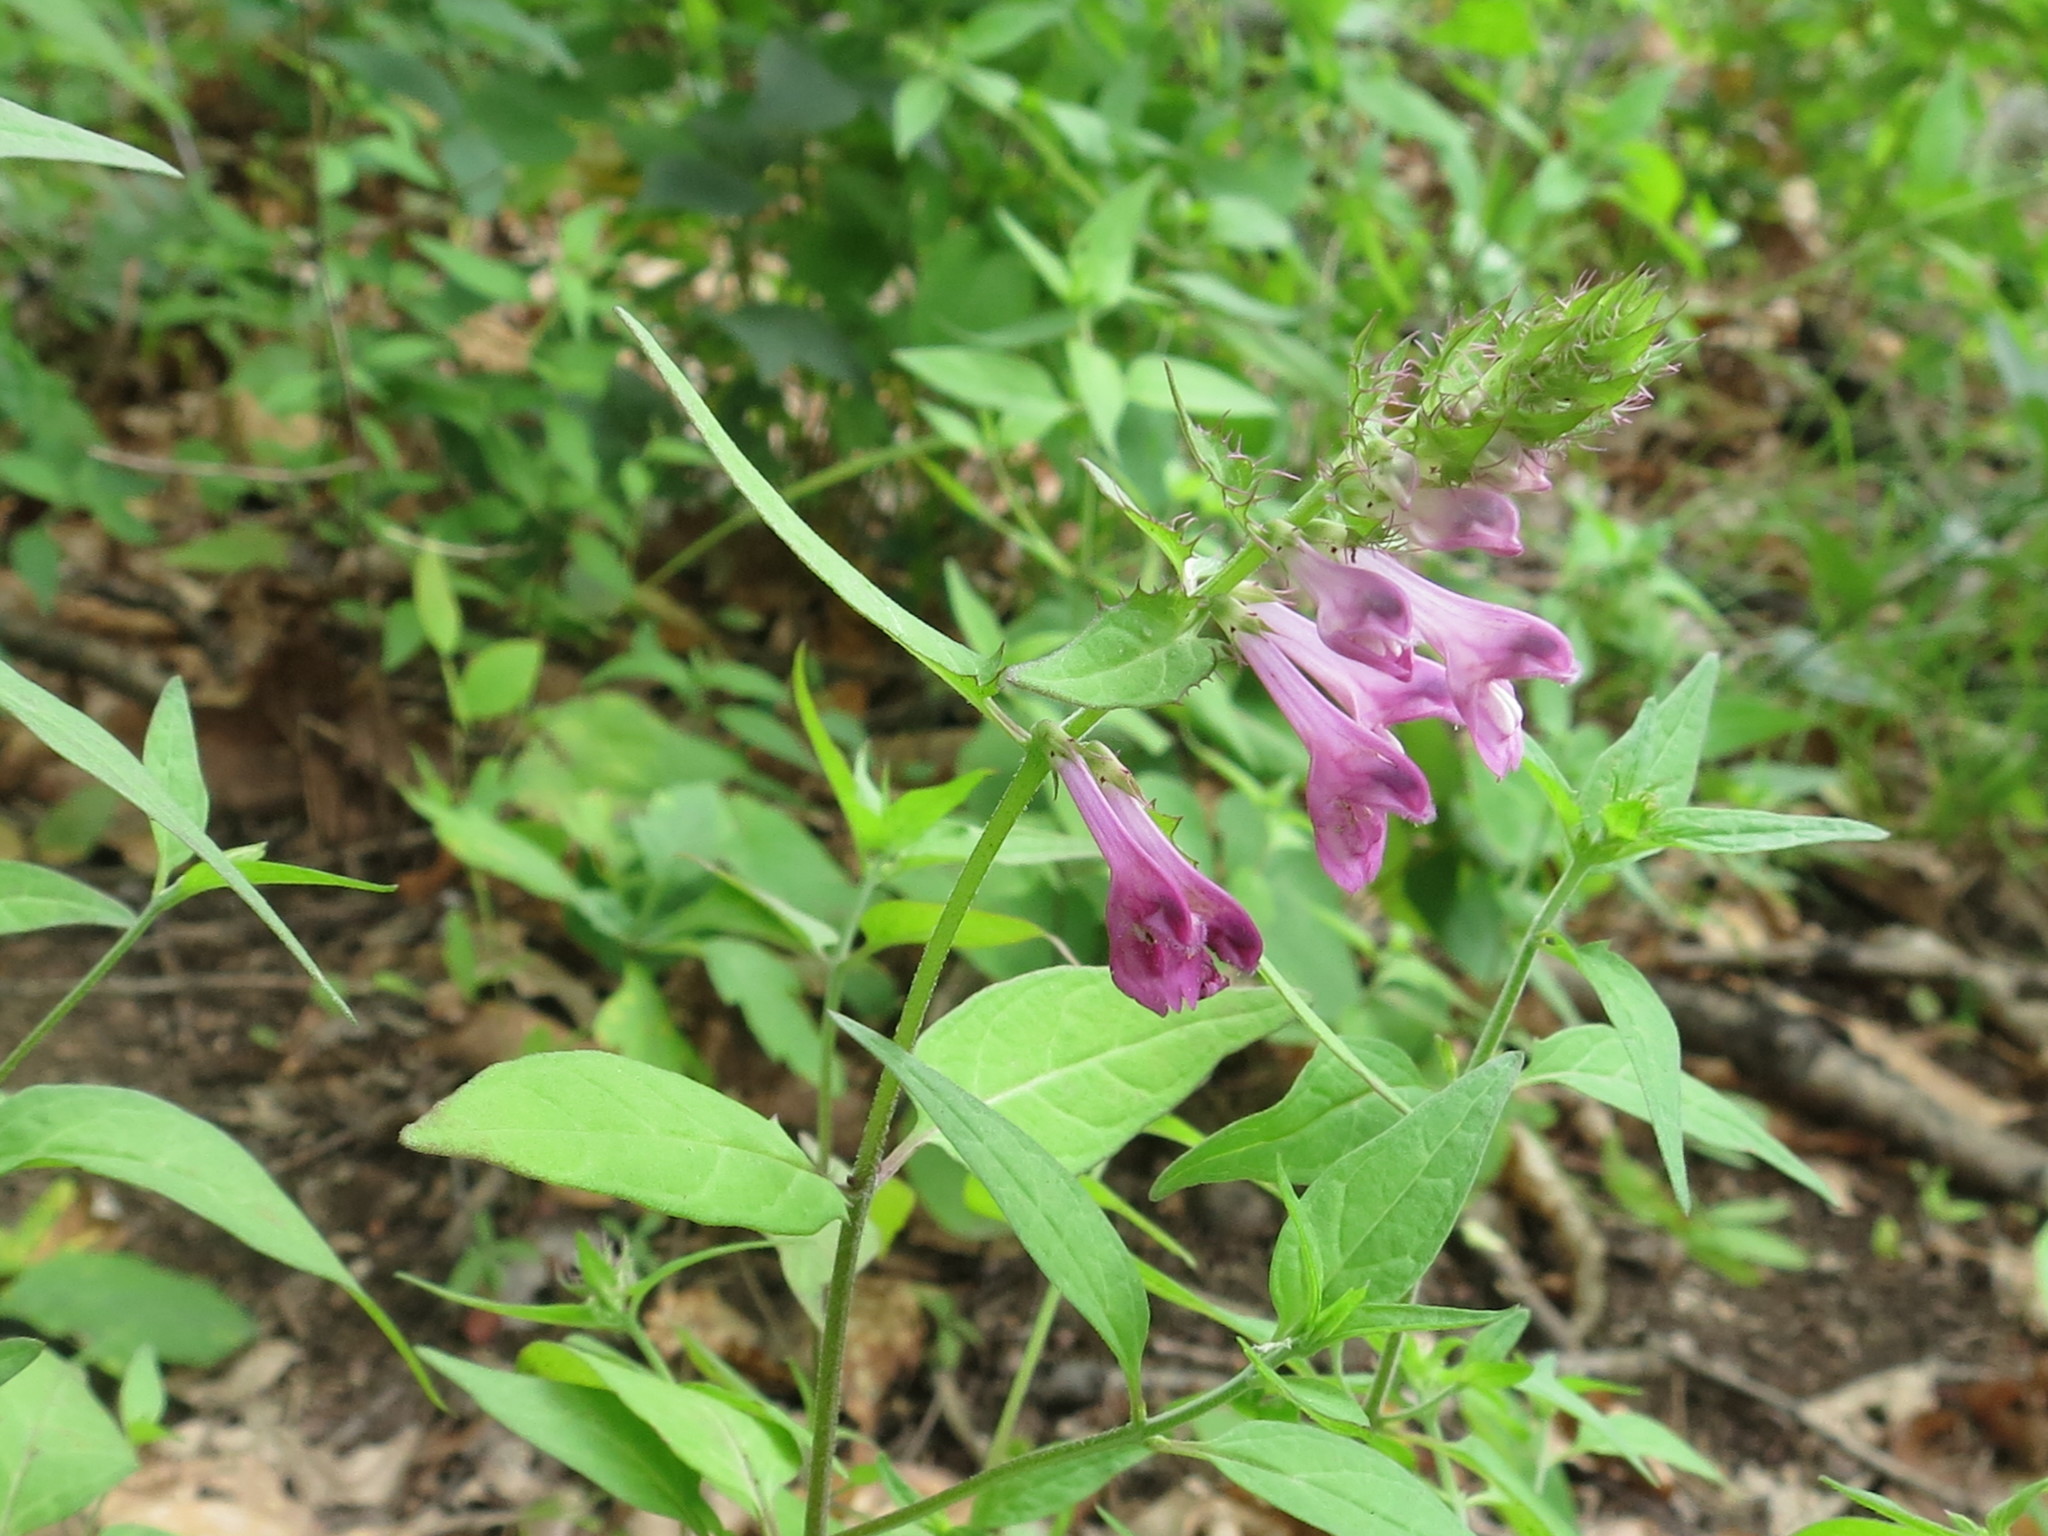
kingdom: Plantae
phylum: Tracheophyta
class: Magnoliopsida
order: Lamiales
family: Orobanchaceae
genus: Melampyrum
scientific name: Melampyrum roseum
